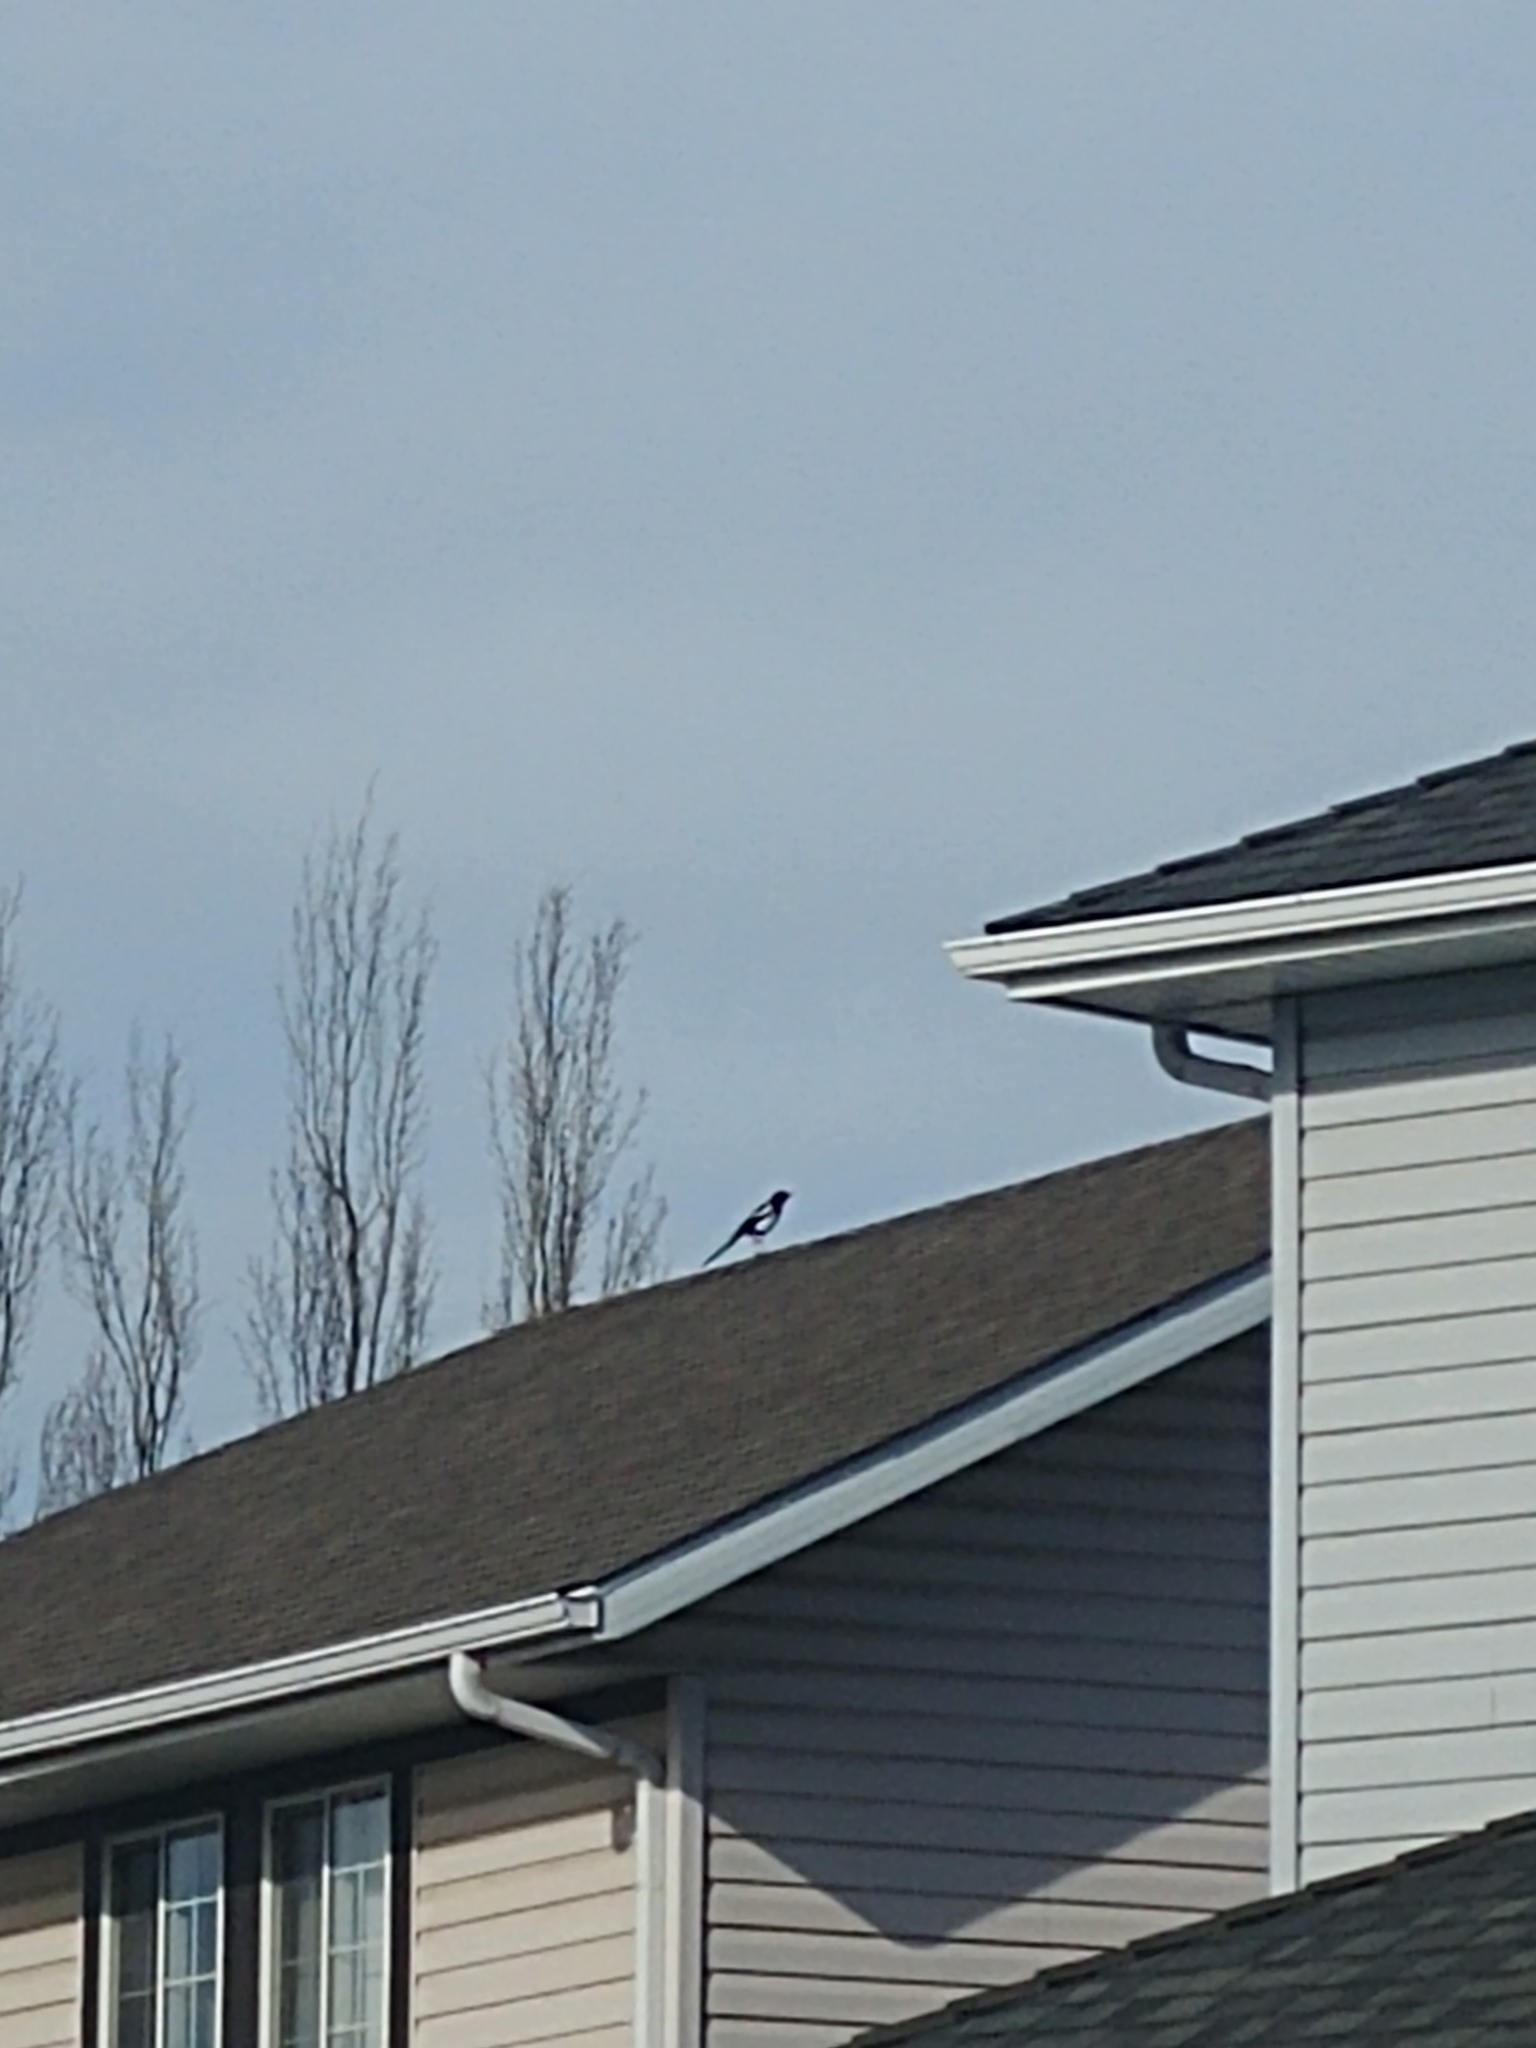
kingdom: Animalia
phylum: Chordata
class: Aves
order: Passeriformes
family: Corvidae
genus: Pica
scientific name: Pica hudsonia
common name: Black-billed magpie
